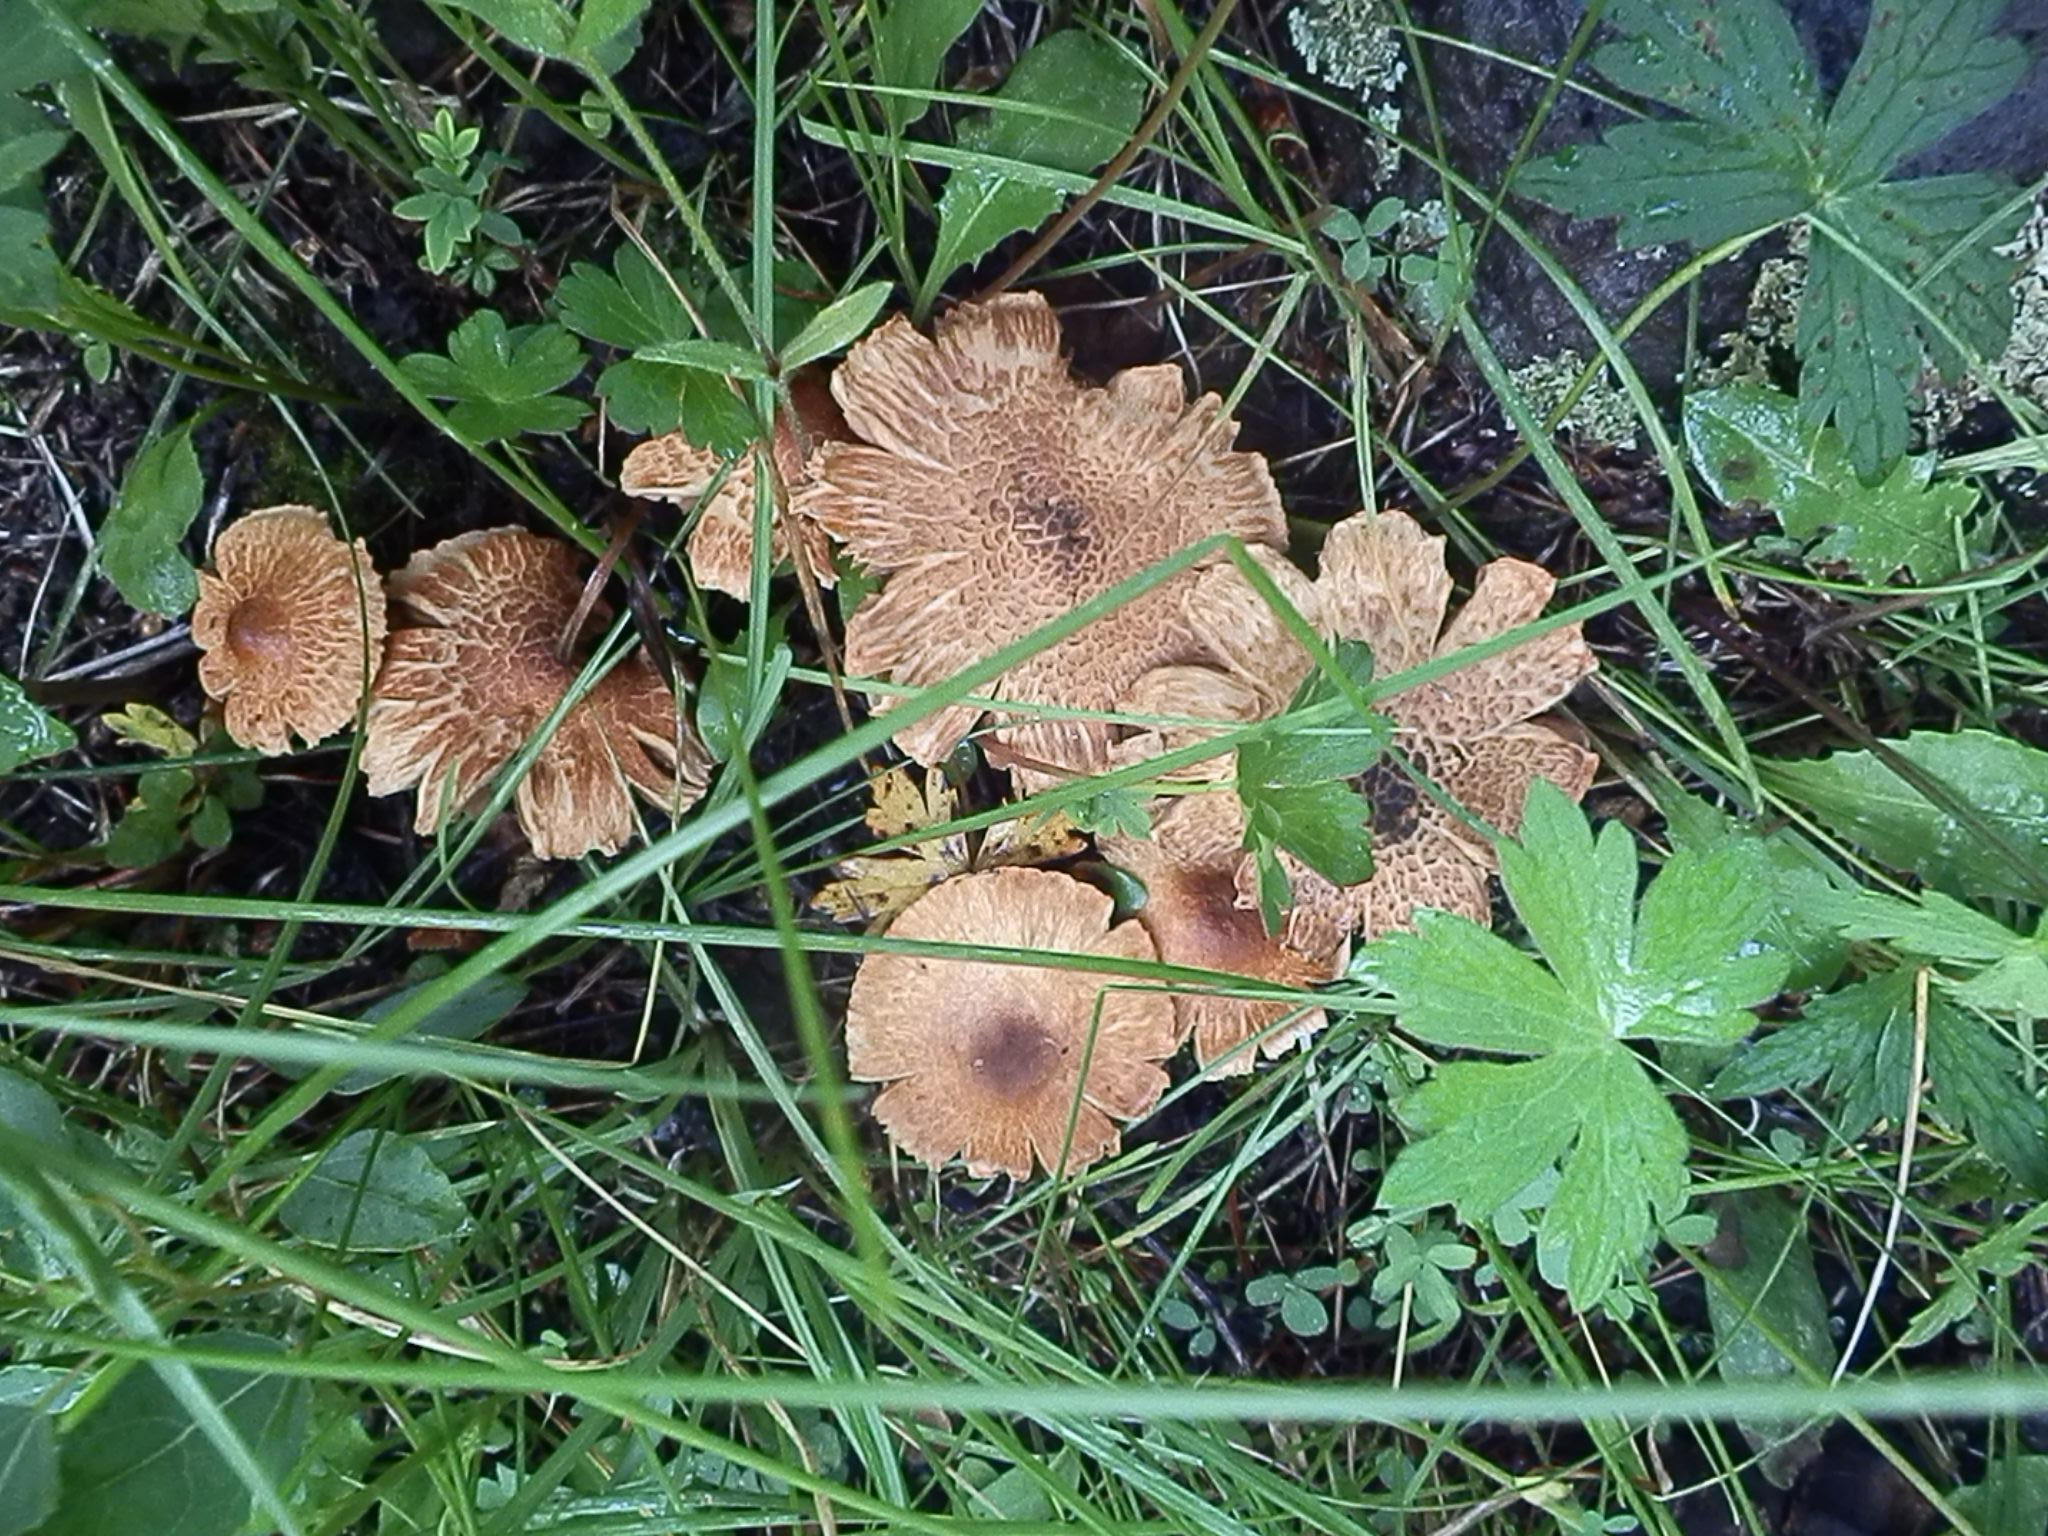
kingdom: Fungi
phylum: Basidiomycota
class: Agaricomycetes
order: Agaricales
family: Tricholomataceae
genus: Tricholoma
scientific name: Tricholoma vaccinum
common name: Scaly knight
